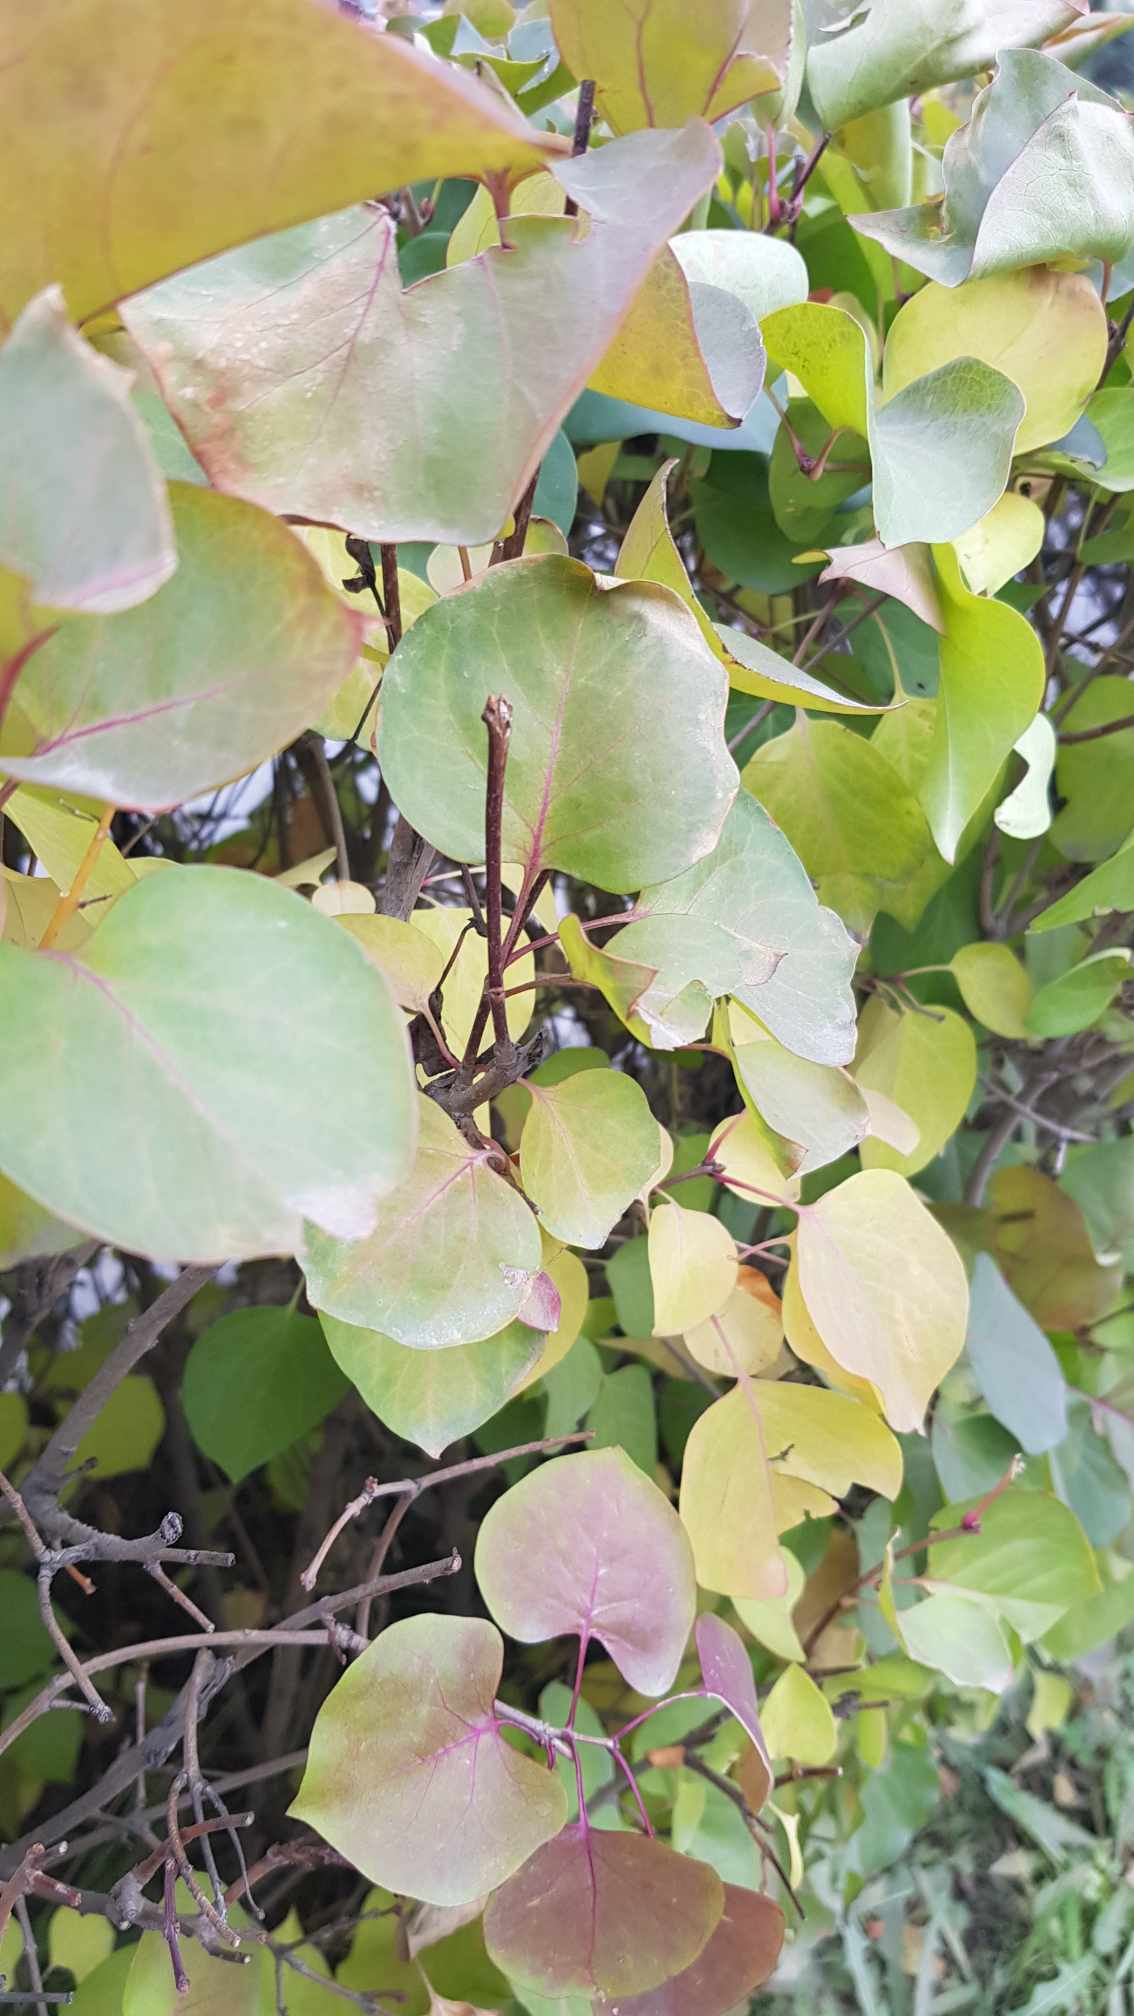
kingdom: Plantae
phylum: Tracheophyta
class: Magnoliopsida
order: Rosales
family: Rosaceae
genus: Prunus
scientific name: Prunus armeniaca
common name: Apricot
